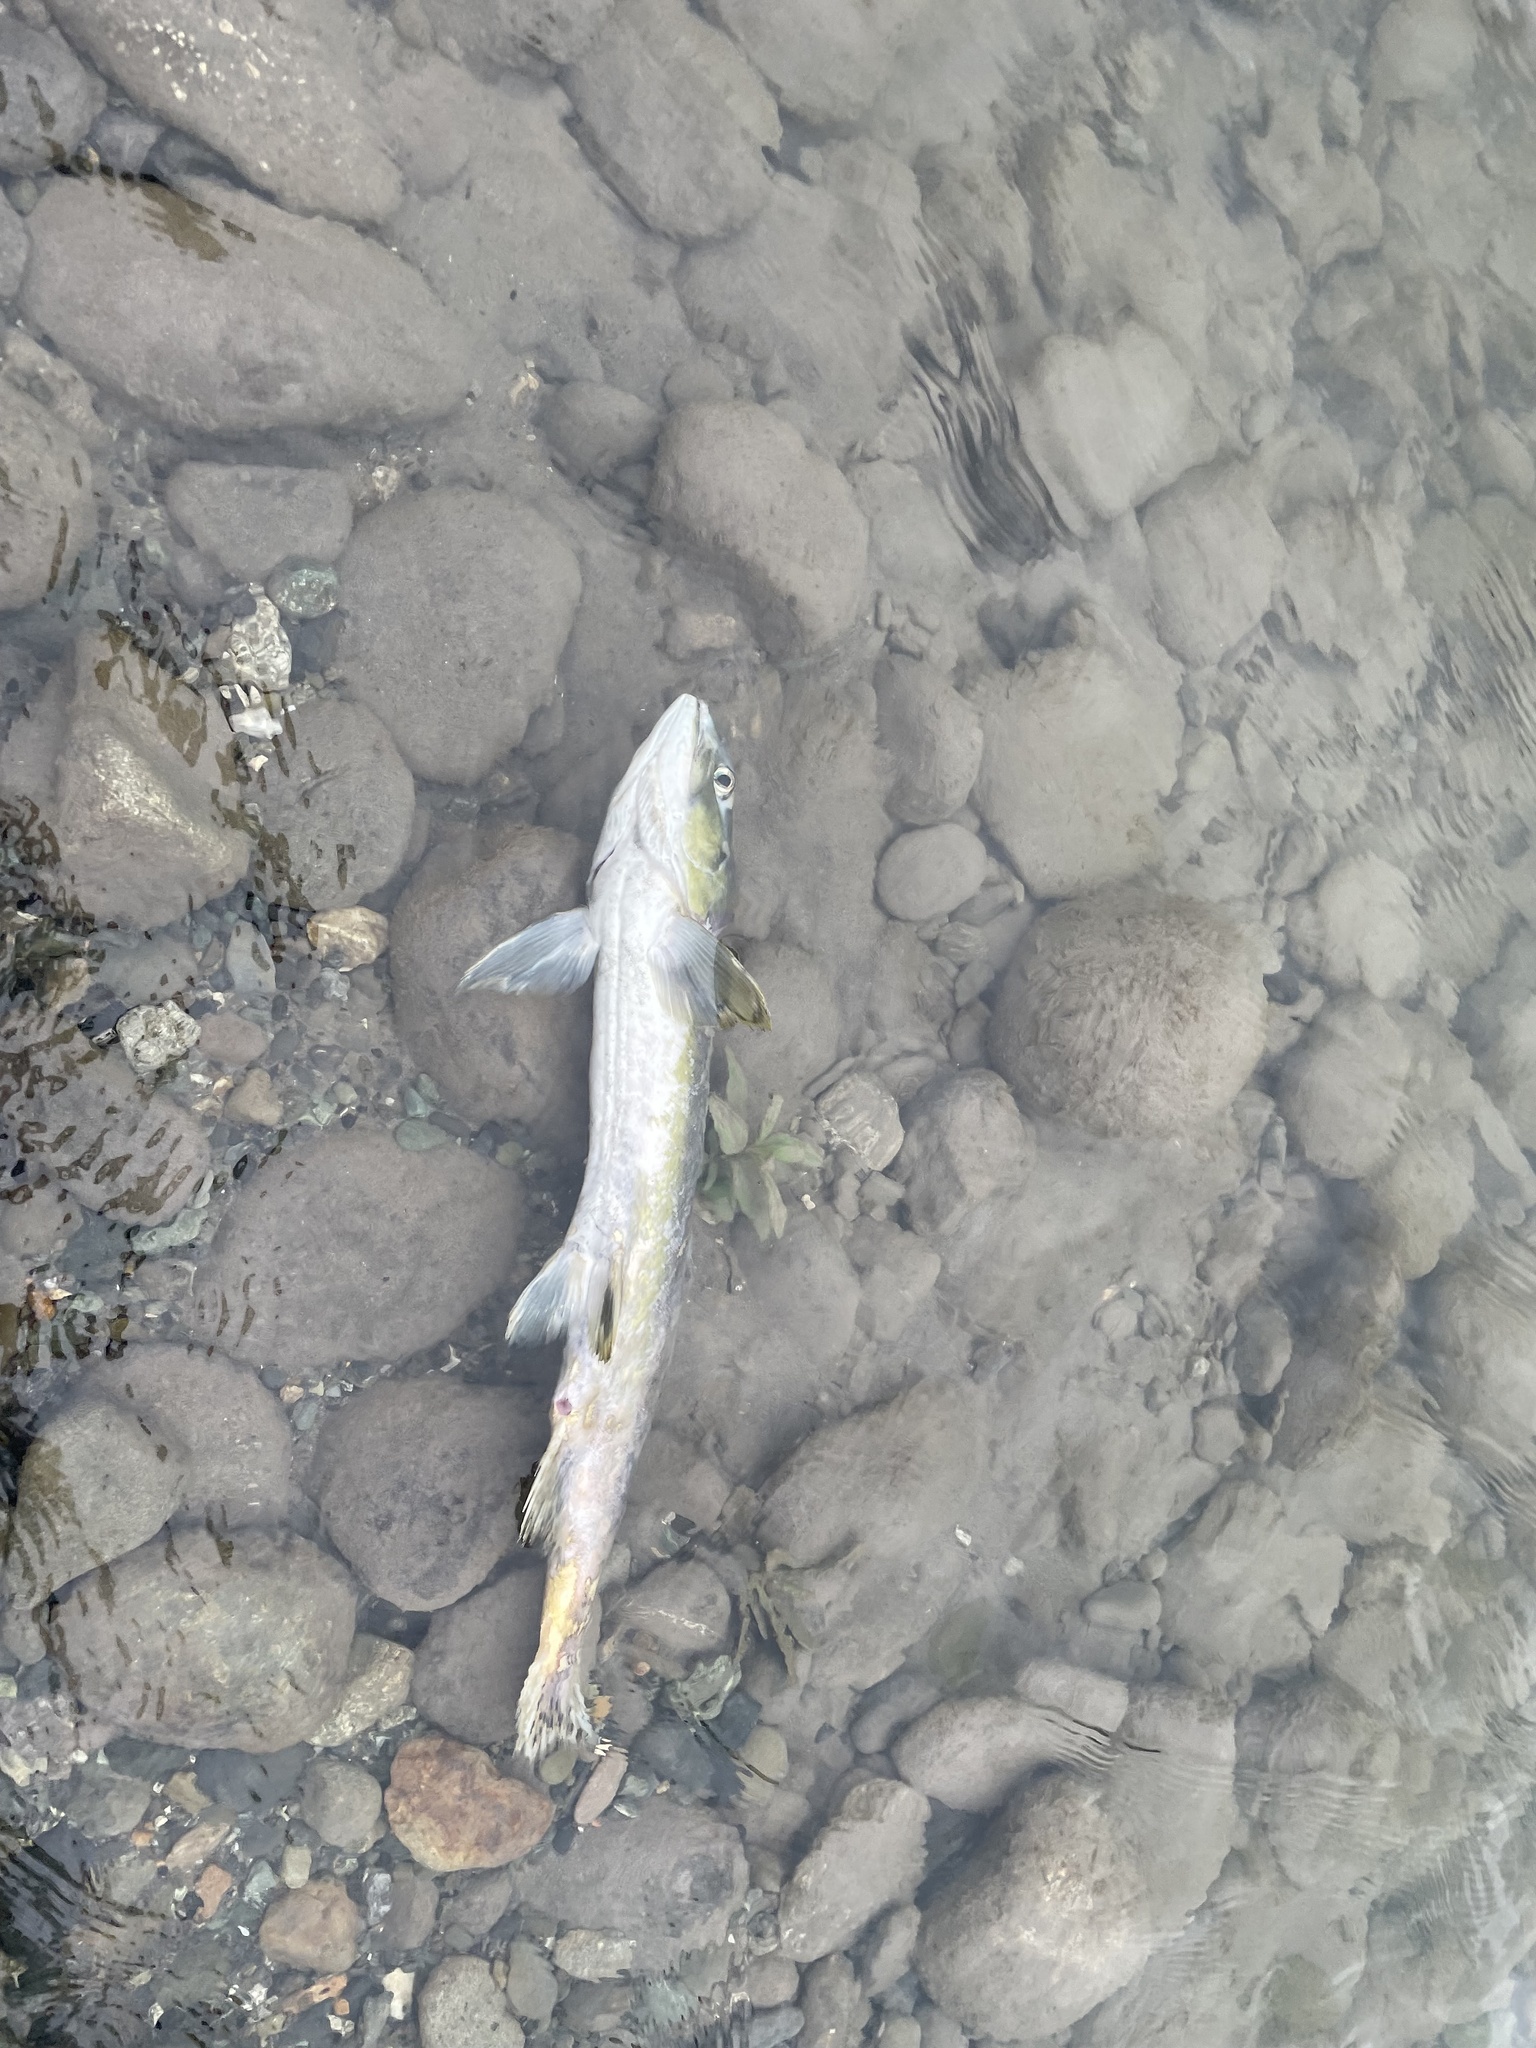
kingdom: Animalia
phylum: Chordata
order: Salmoniformes
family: Salmonidae
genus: Oncorhynchus
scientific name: Oncorhynchus gorbuscha
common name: Humpback salmon
